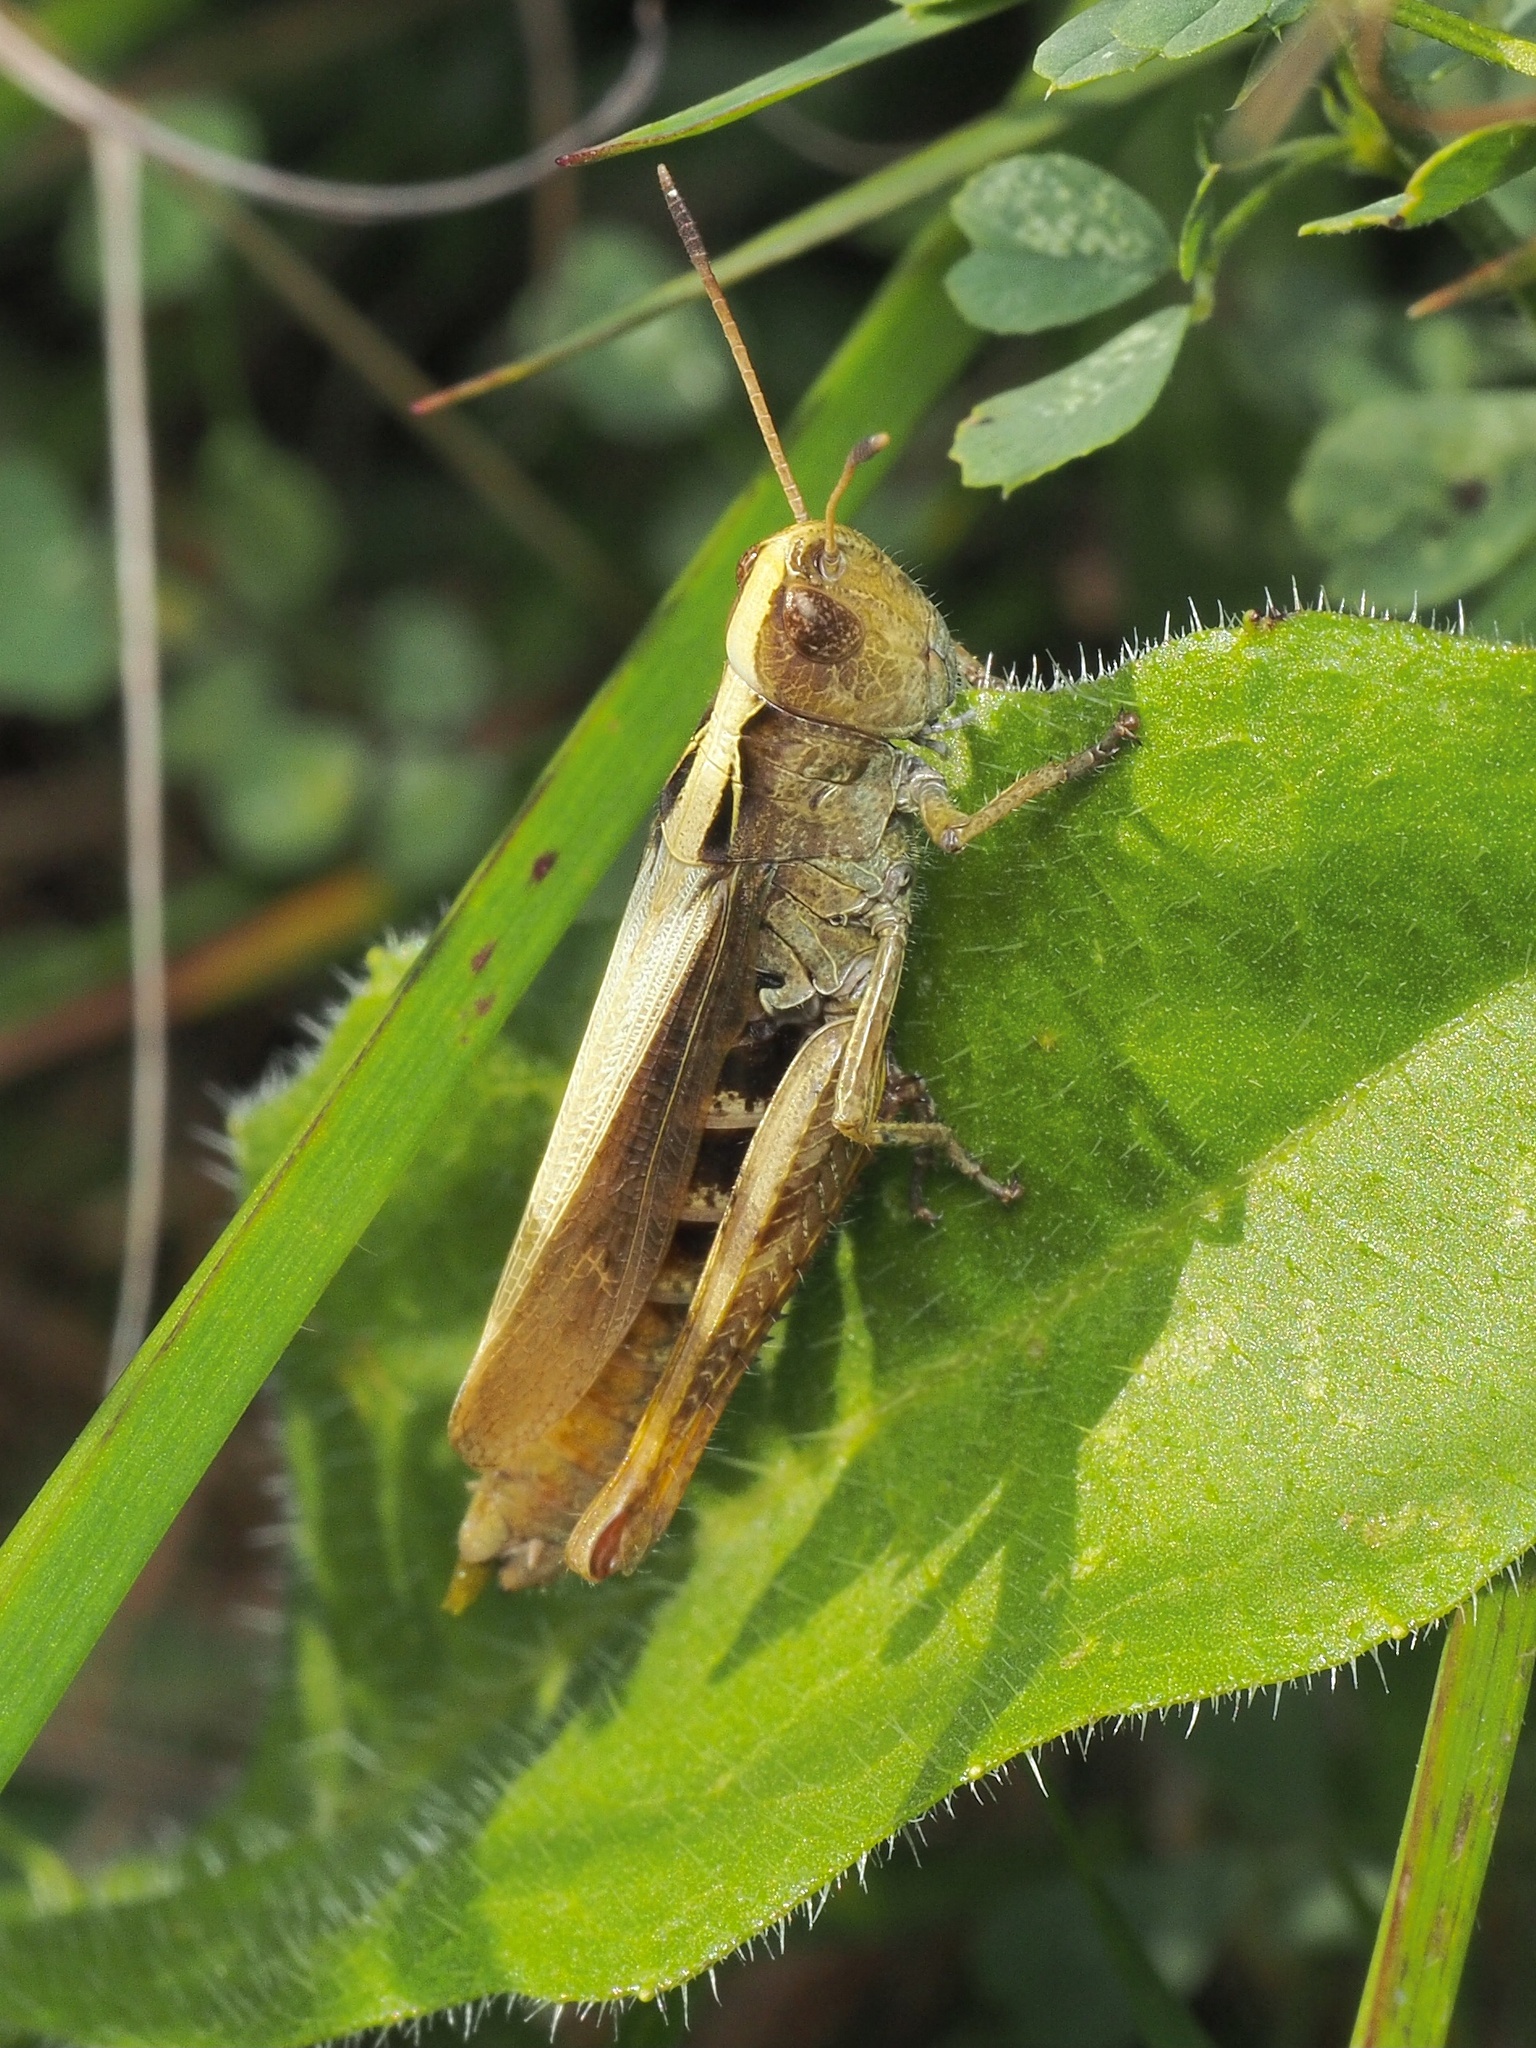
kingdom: Animalia
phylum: Arthropoda
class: Insecta
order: Orthoptera
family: Acrididae
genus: Gomphocerippus
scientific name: Gomphocerippus rufus
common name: Rufous grasshopper
